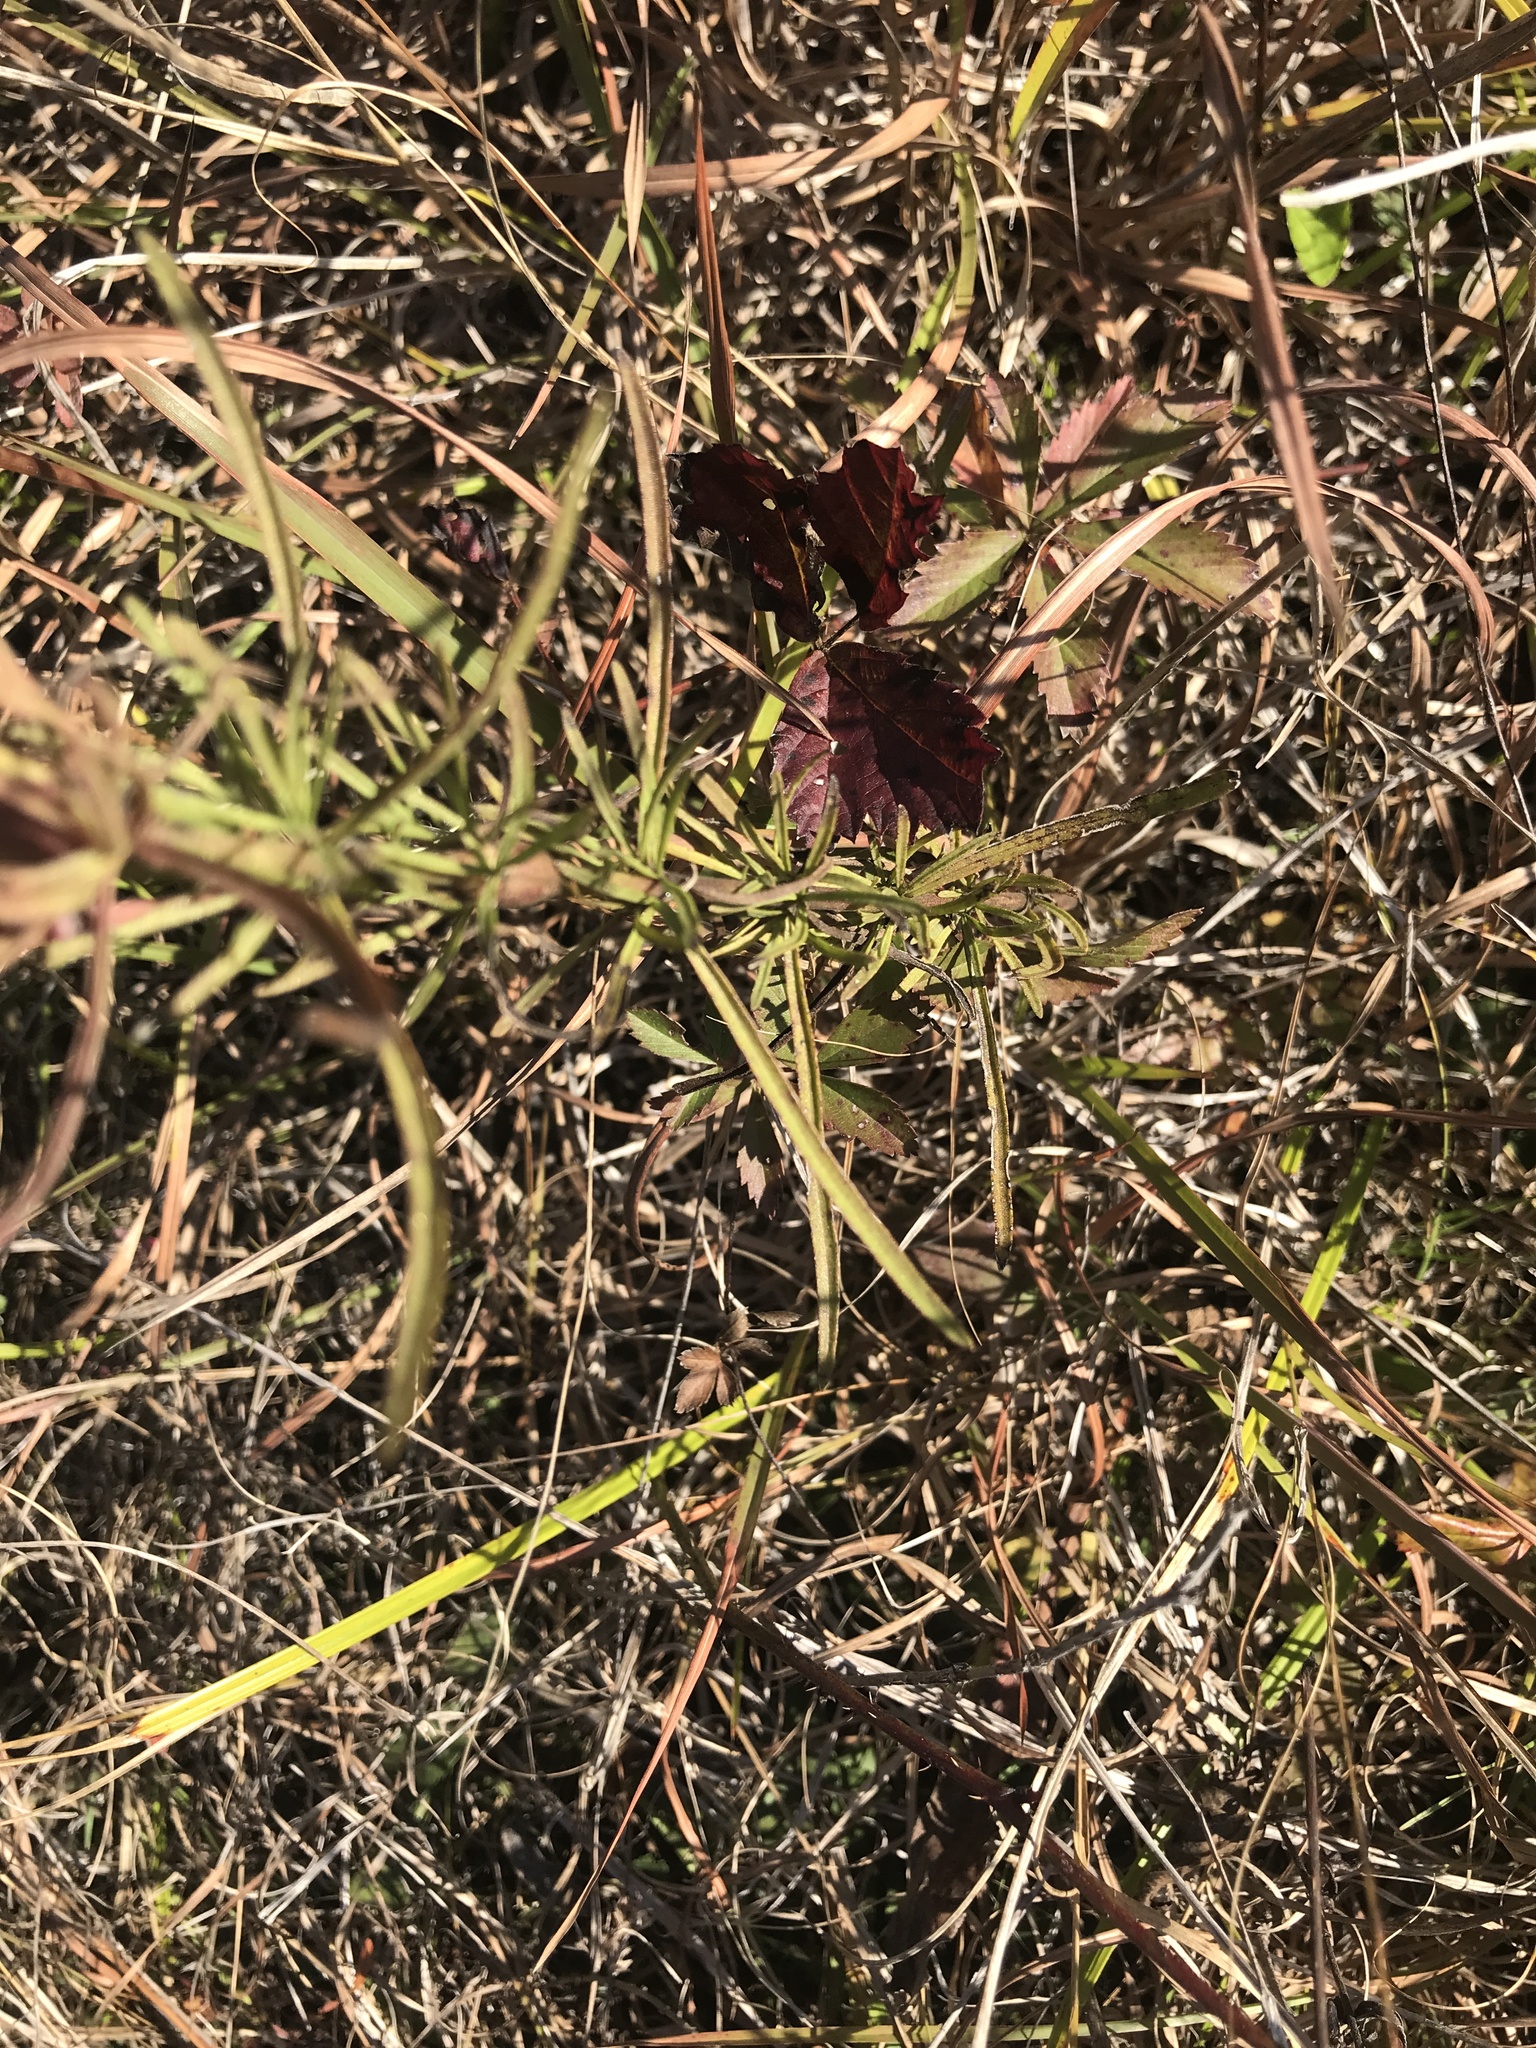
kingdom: Plantae
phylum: Tracheophyta
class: Magnoliopsida
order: Asterales
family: Asteraceae
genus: Eupatorium
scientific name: Eupatorium hyssopifolium
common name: Hyssop-leaf thoroughwort
